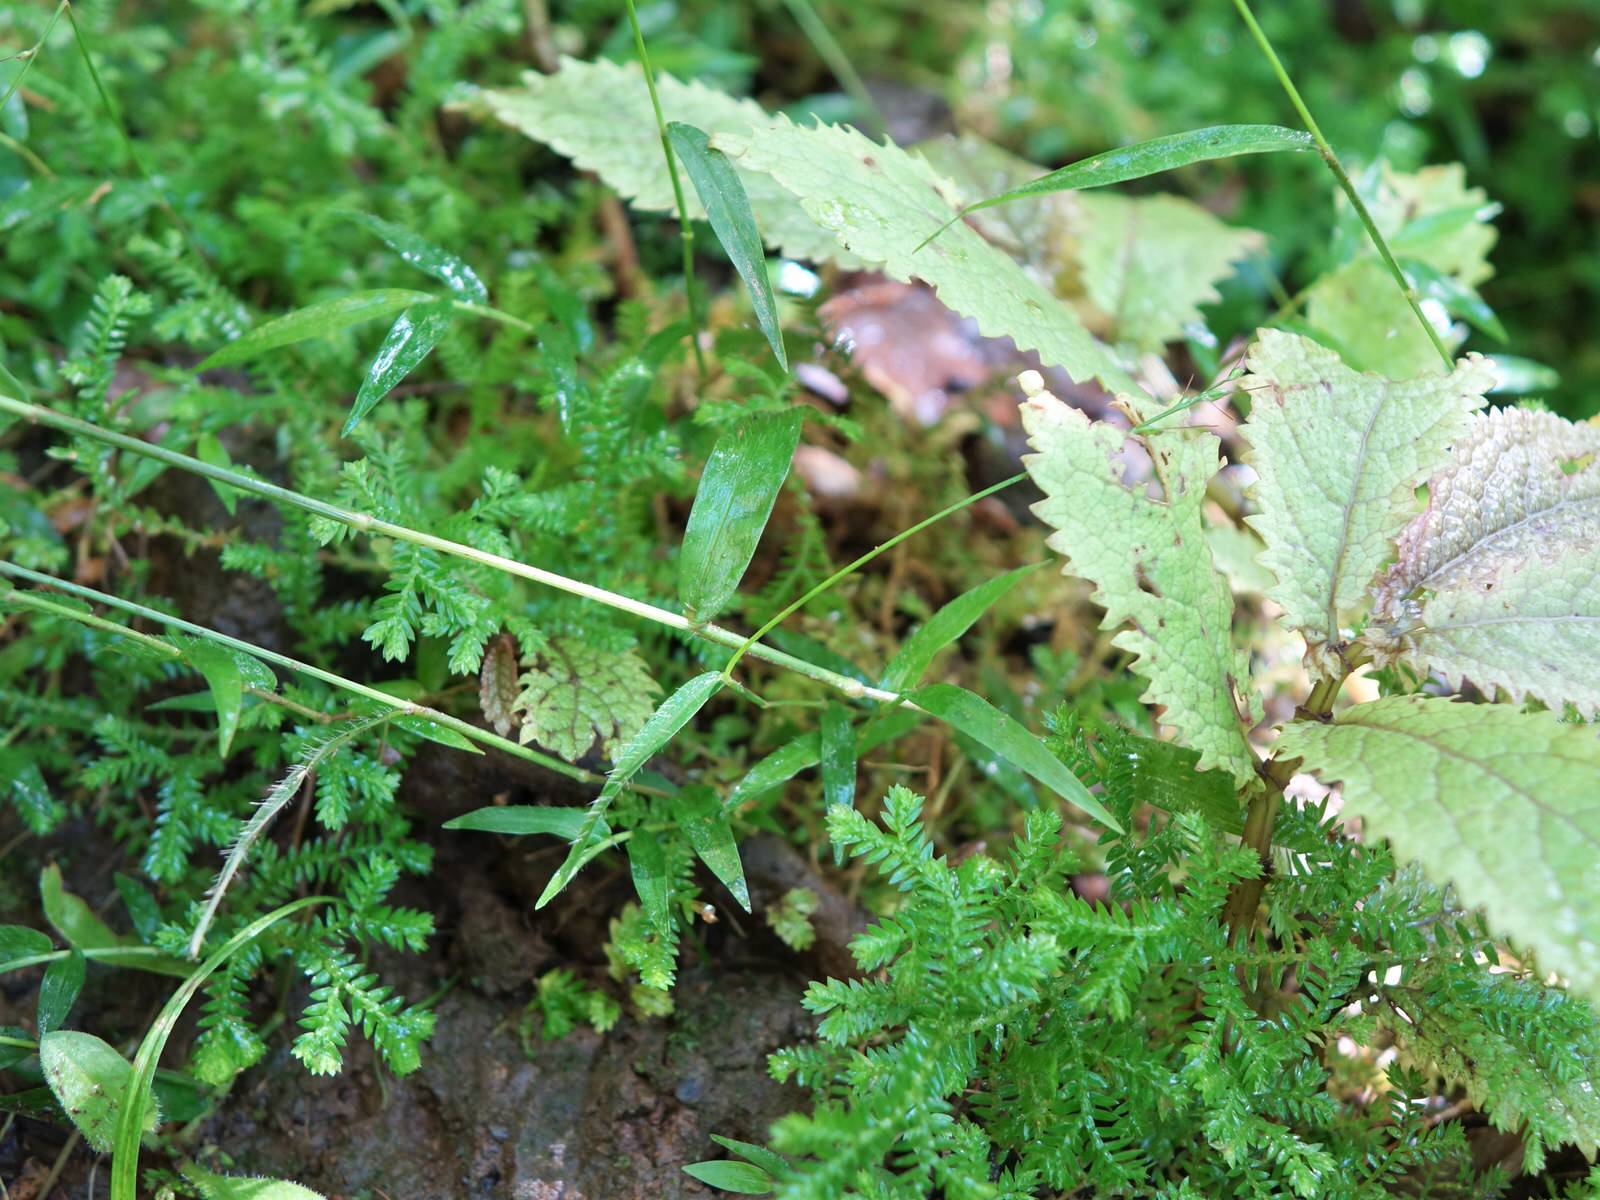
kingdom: Plantae
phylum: Tracheophyta
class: Liliopsida
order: Poales
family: Poaceae
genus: Oplismenus
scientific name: Oplismenus hirtellus
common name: Basketgrass
